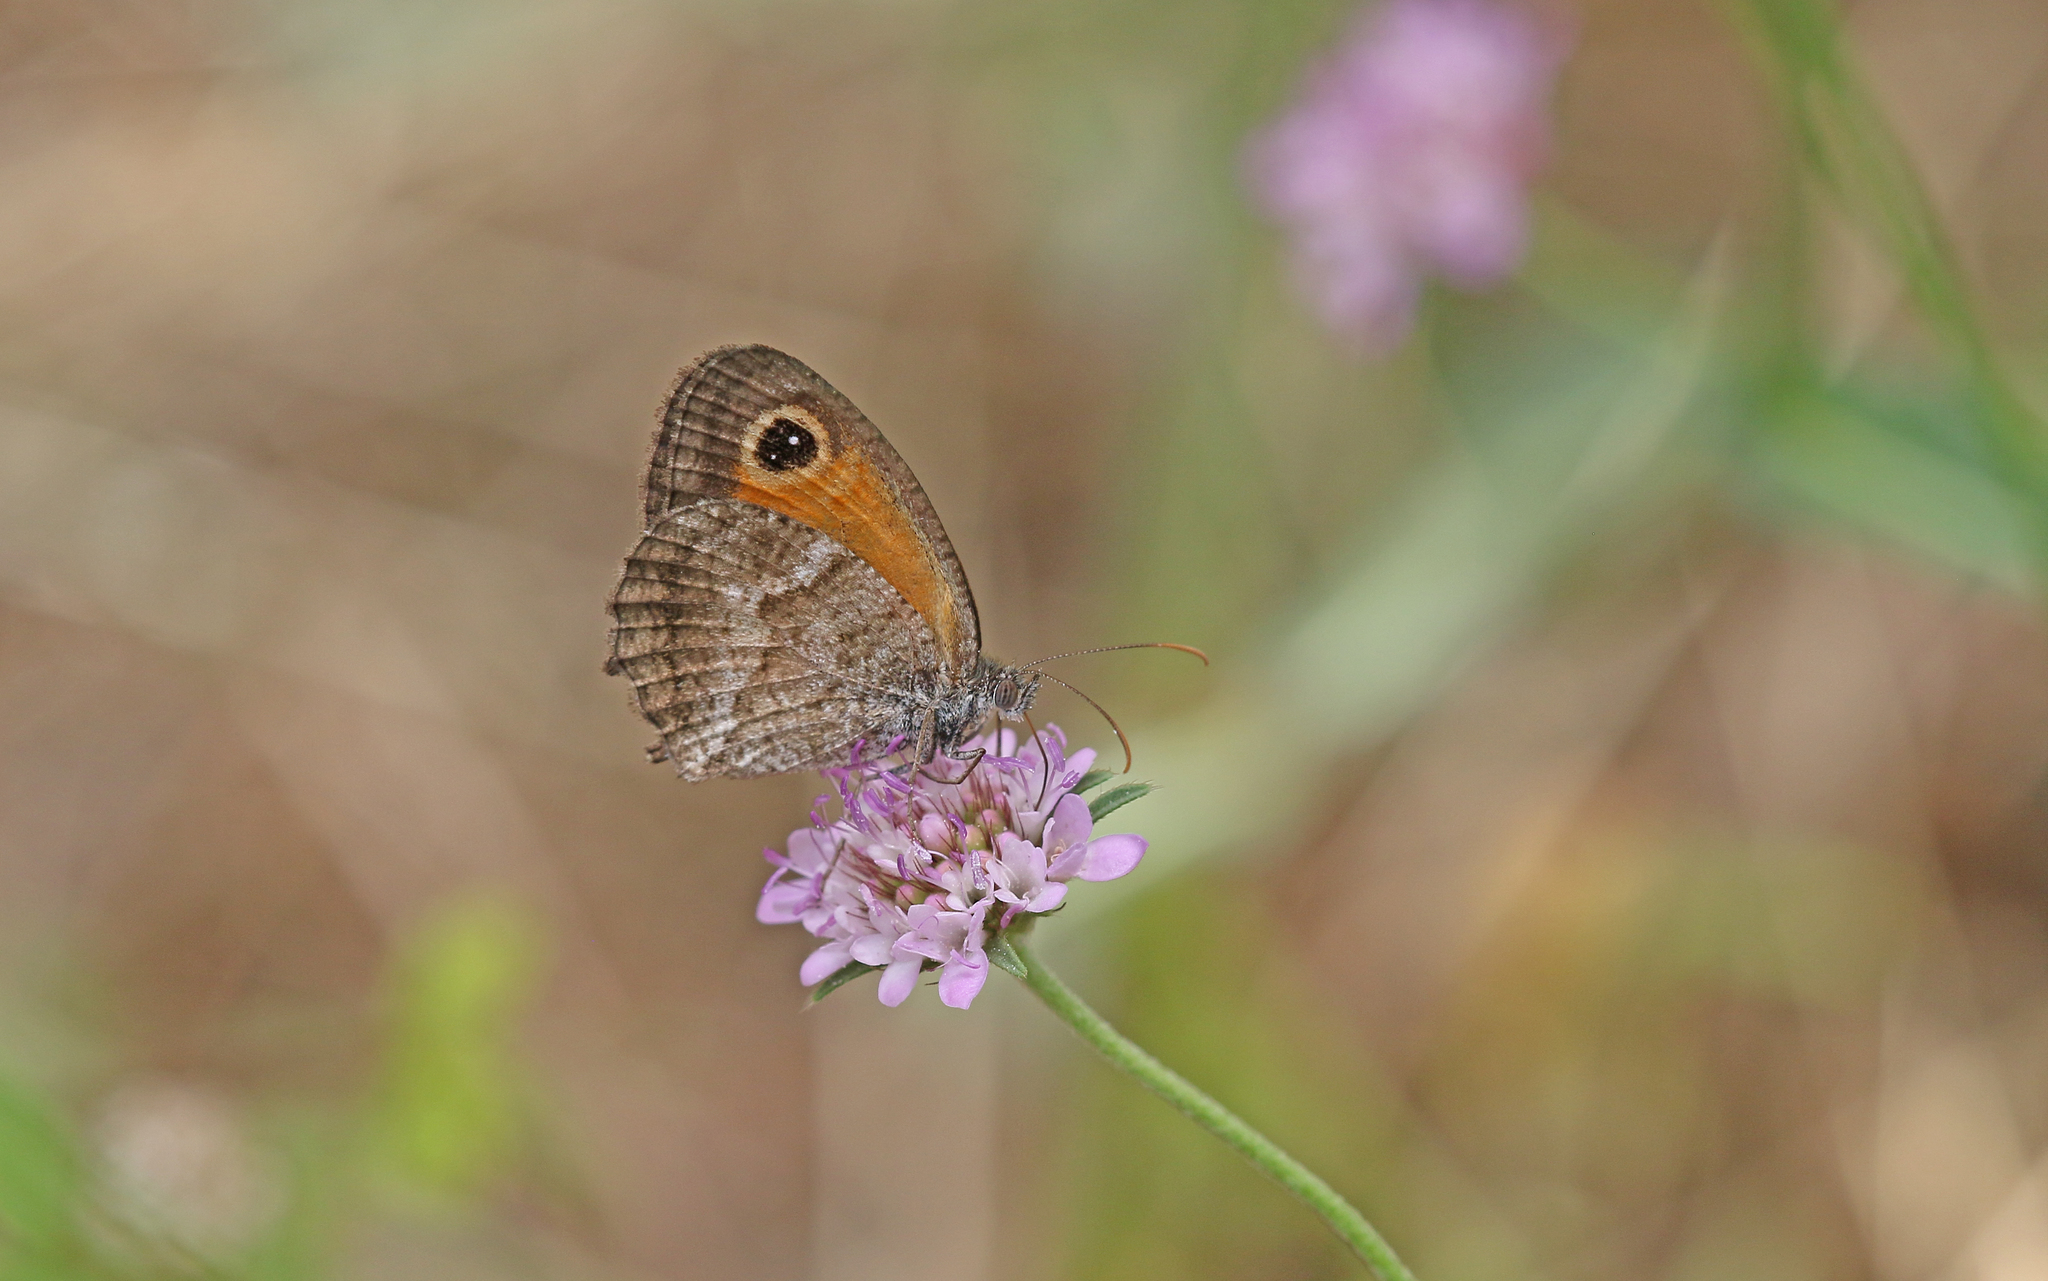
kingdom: Animalia
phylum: Arthropoda
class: Insecta
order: Lepidoptera
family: Nymphalidae
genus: Pyronia
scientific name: Pyronia cecilia
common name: Southern gatekeeper
